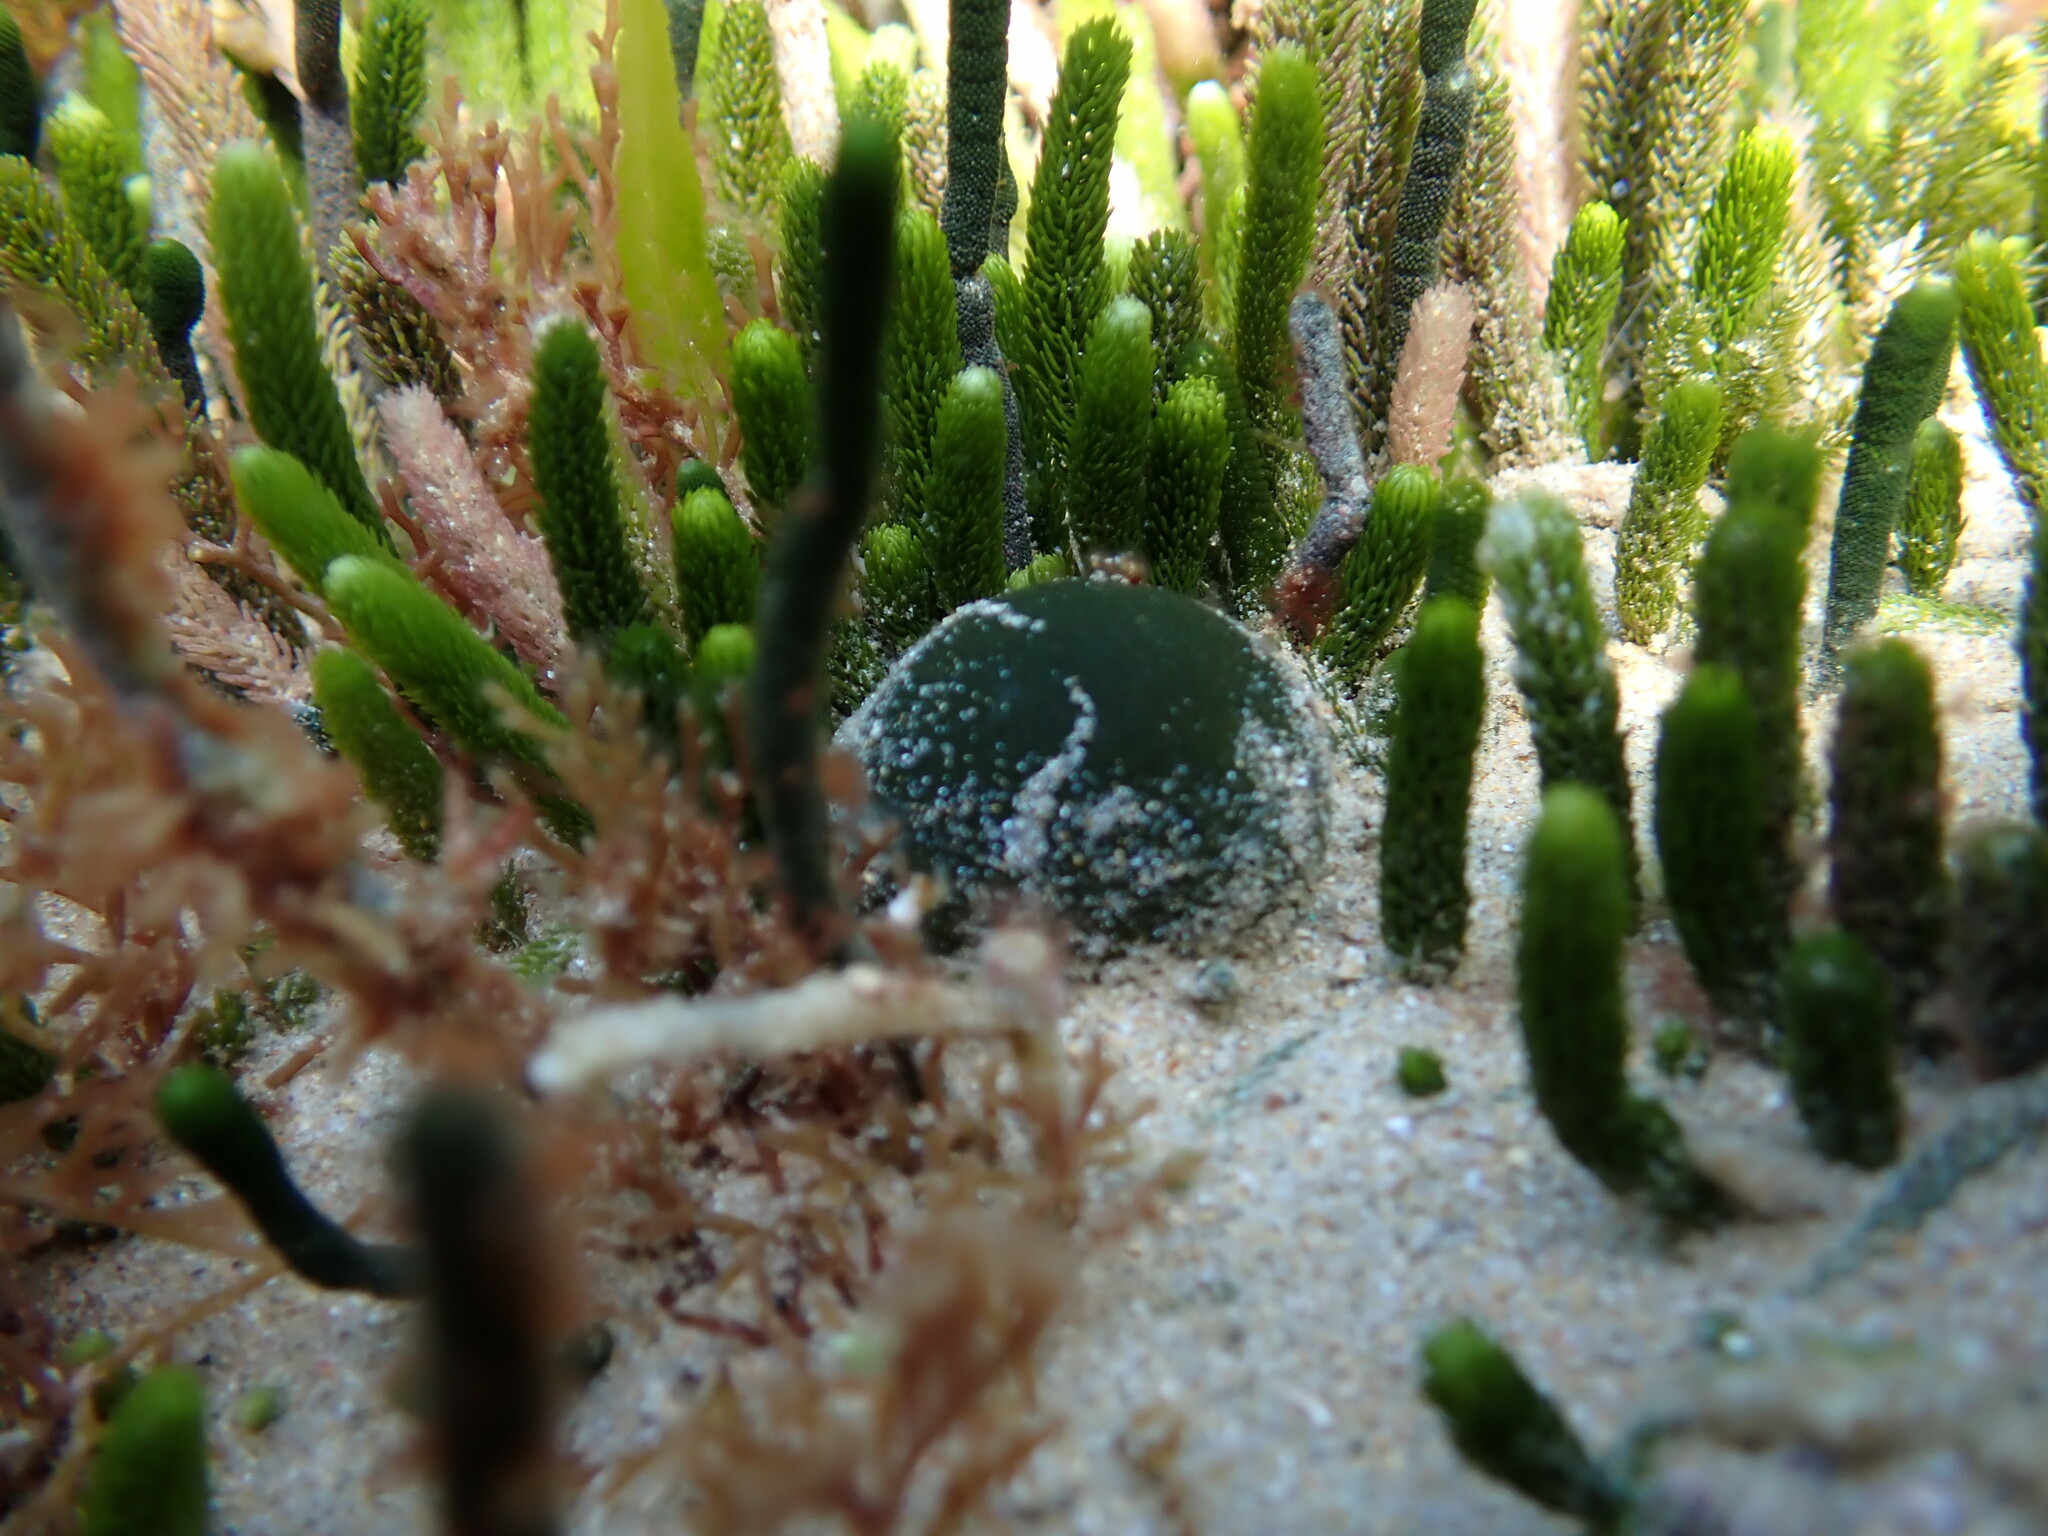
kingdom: Plantae
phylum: Chlorophyta
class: Ulvophyceae
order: Bryopsidales
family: Codiaceae
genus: Codium
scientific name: Codium
